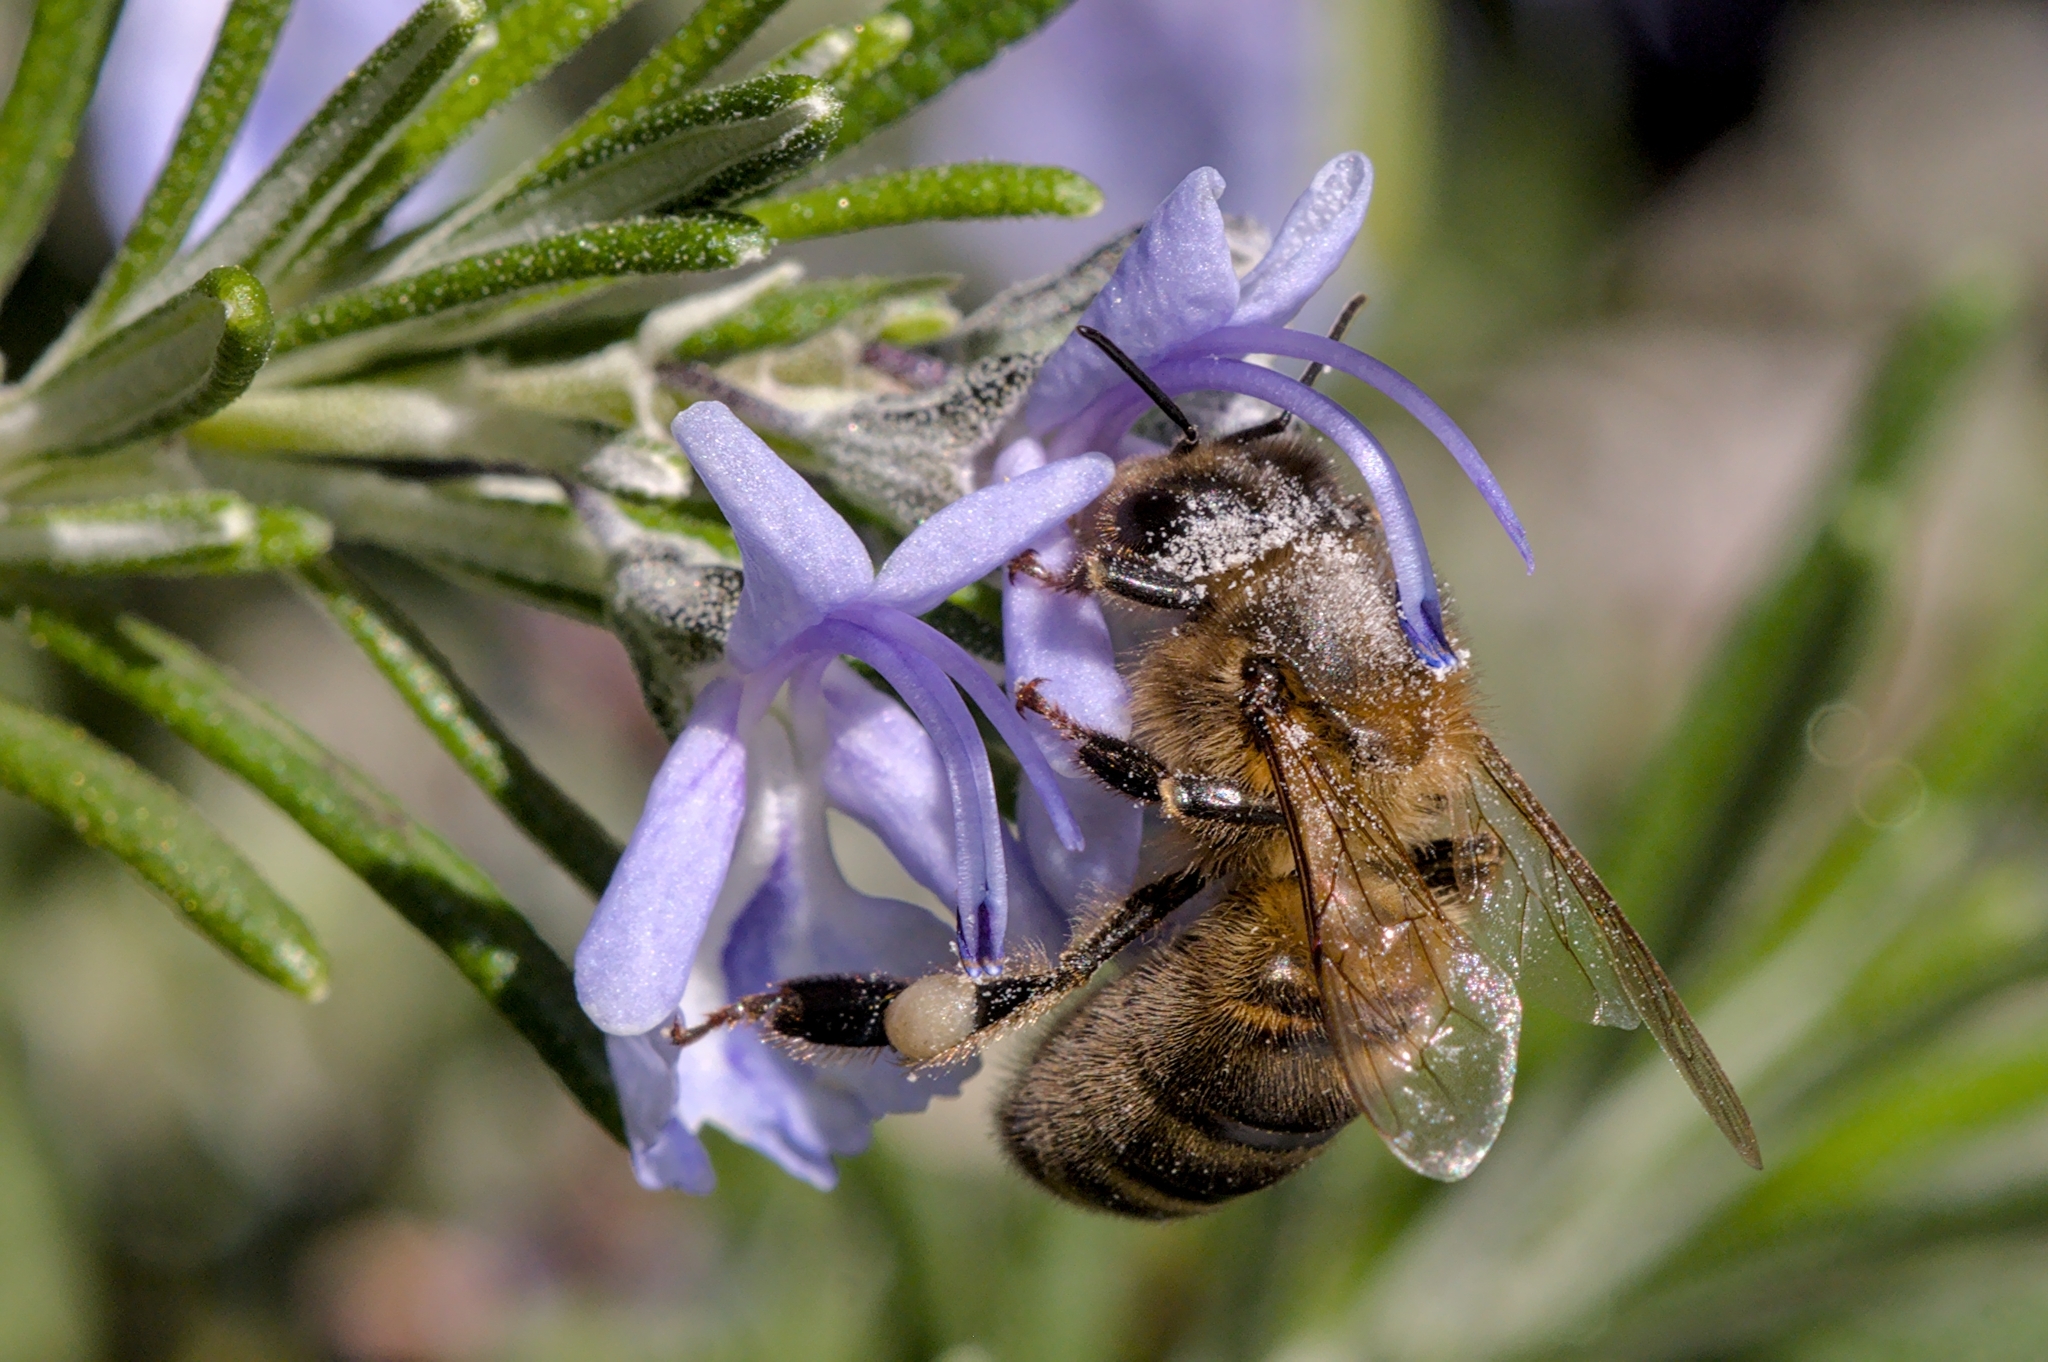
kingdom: Animalia
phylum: Arthropoda
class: Insecta
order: Hymenoptera
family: Apidae
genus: Apis
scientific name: Apis mellifera
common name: Honey bee
